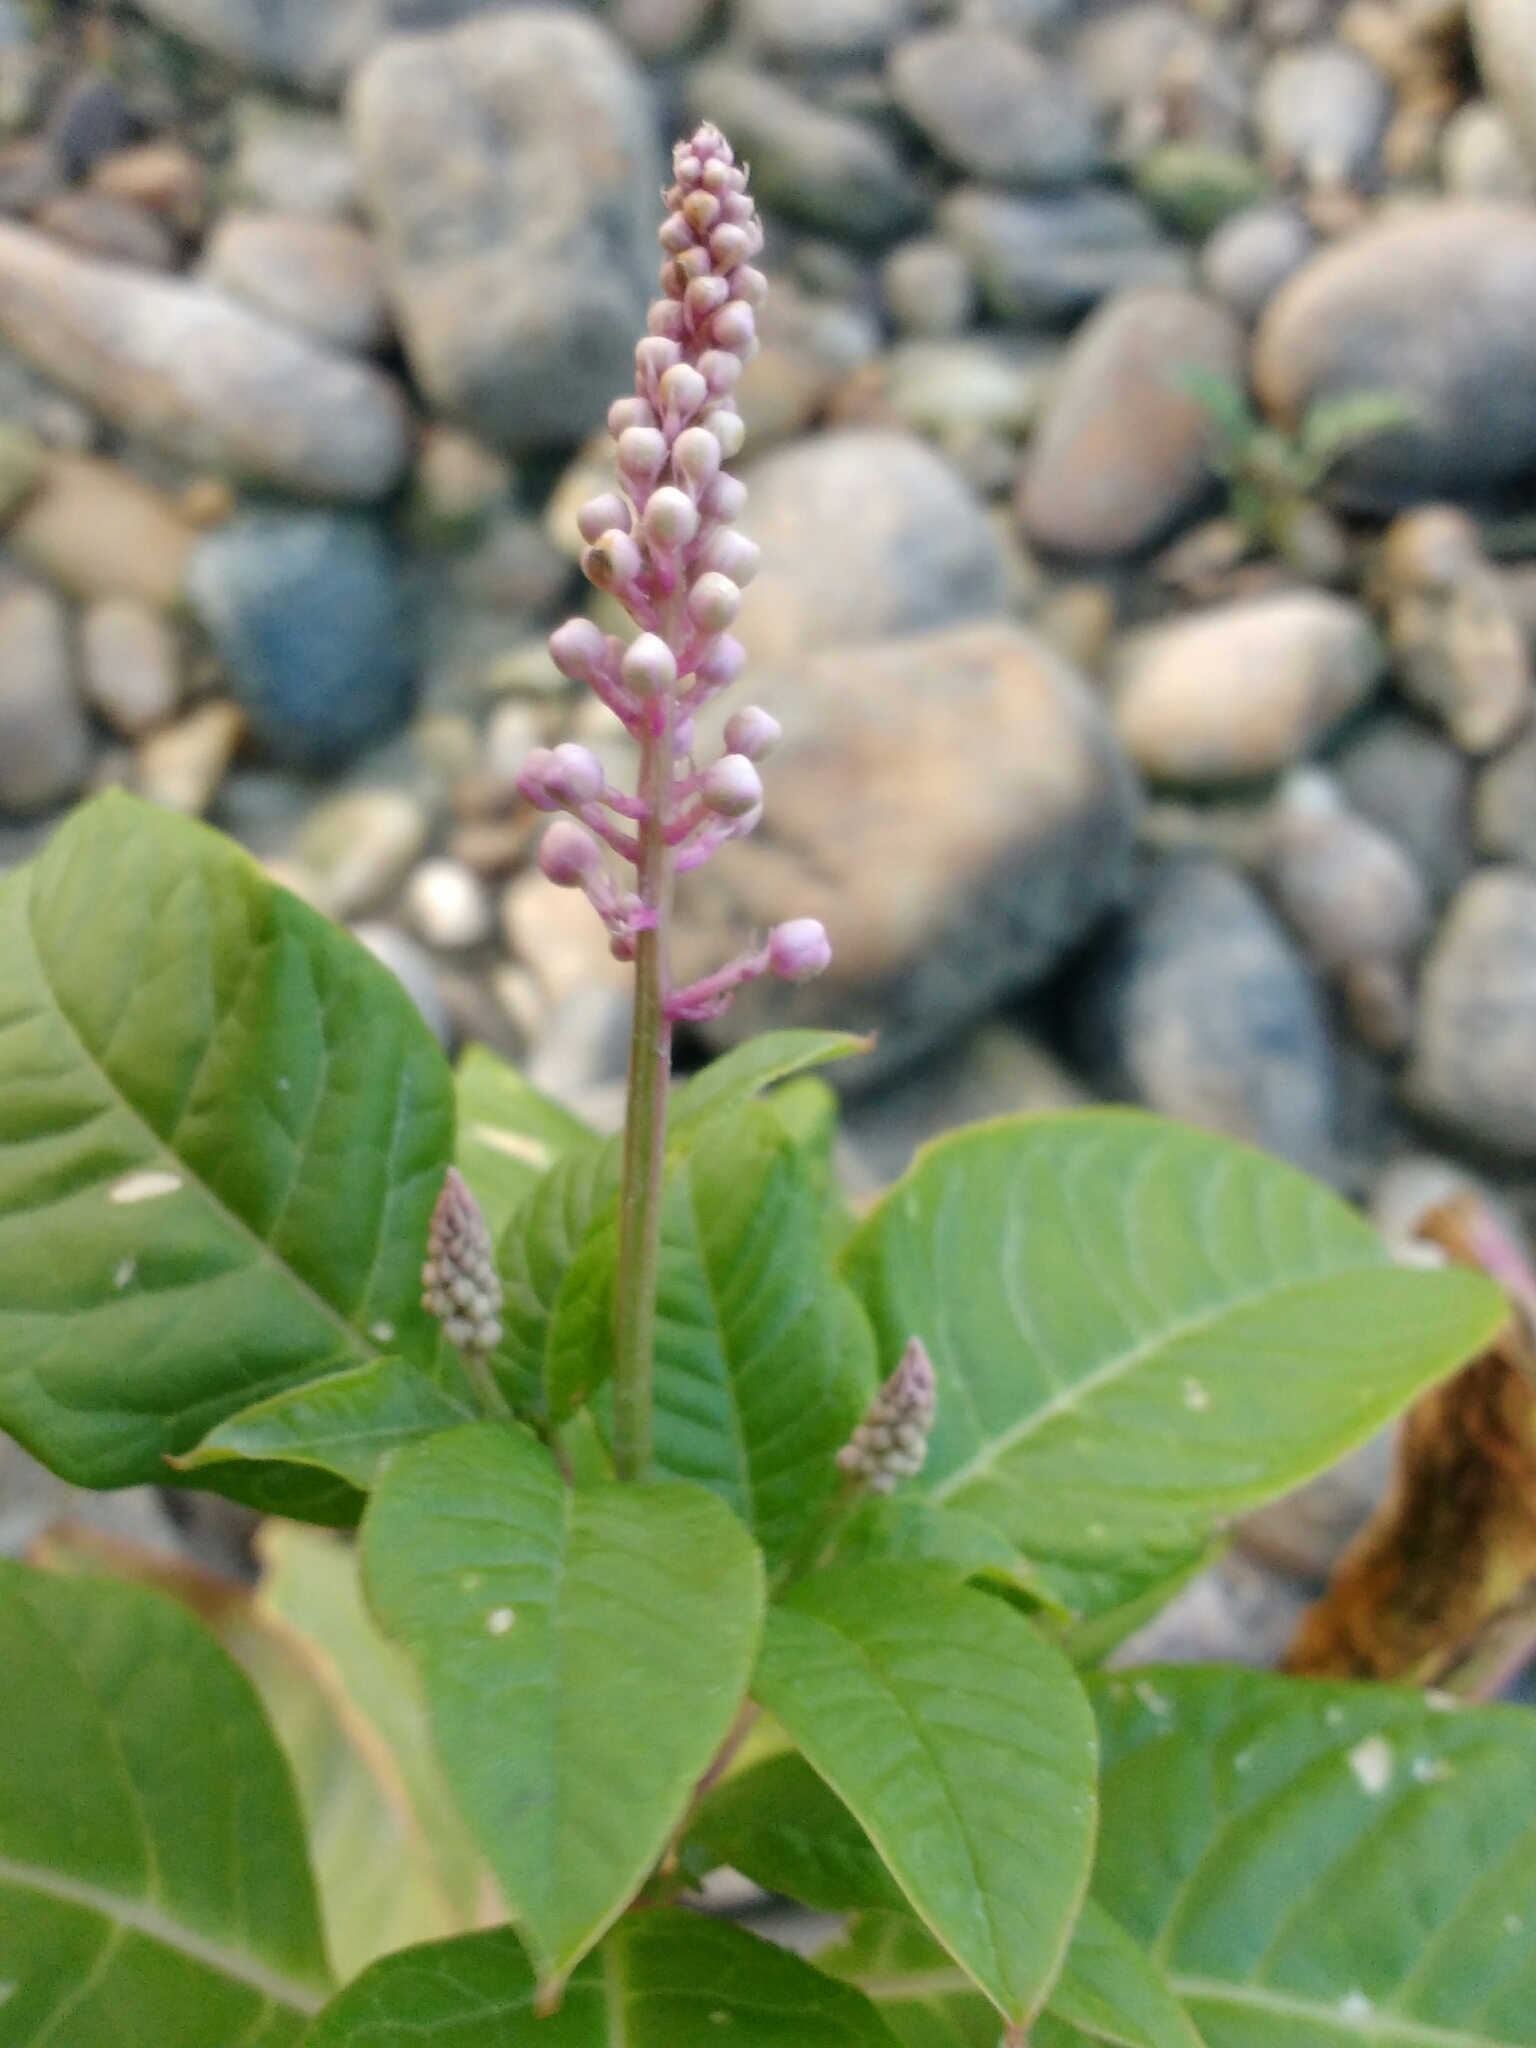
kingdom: Plantae
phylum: Tracheophyta
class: Magnoliopsida
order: Caryophyllales
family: Phytolaccaceae
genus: Phytolacca
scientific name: Phytolacca americana
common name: American pokeweed
